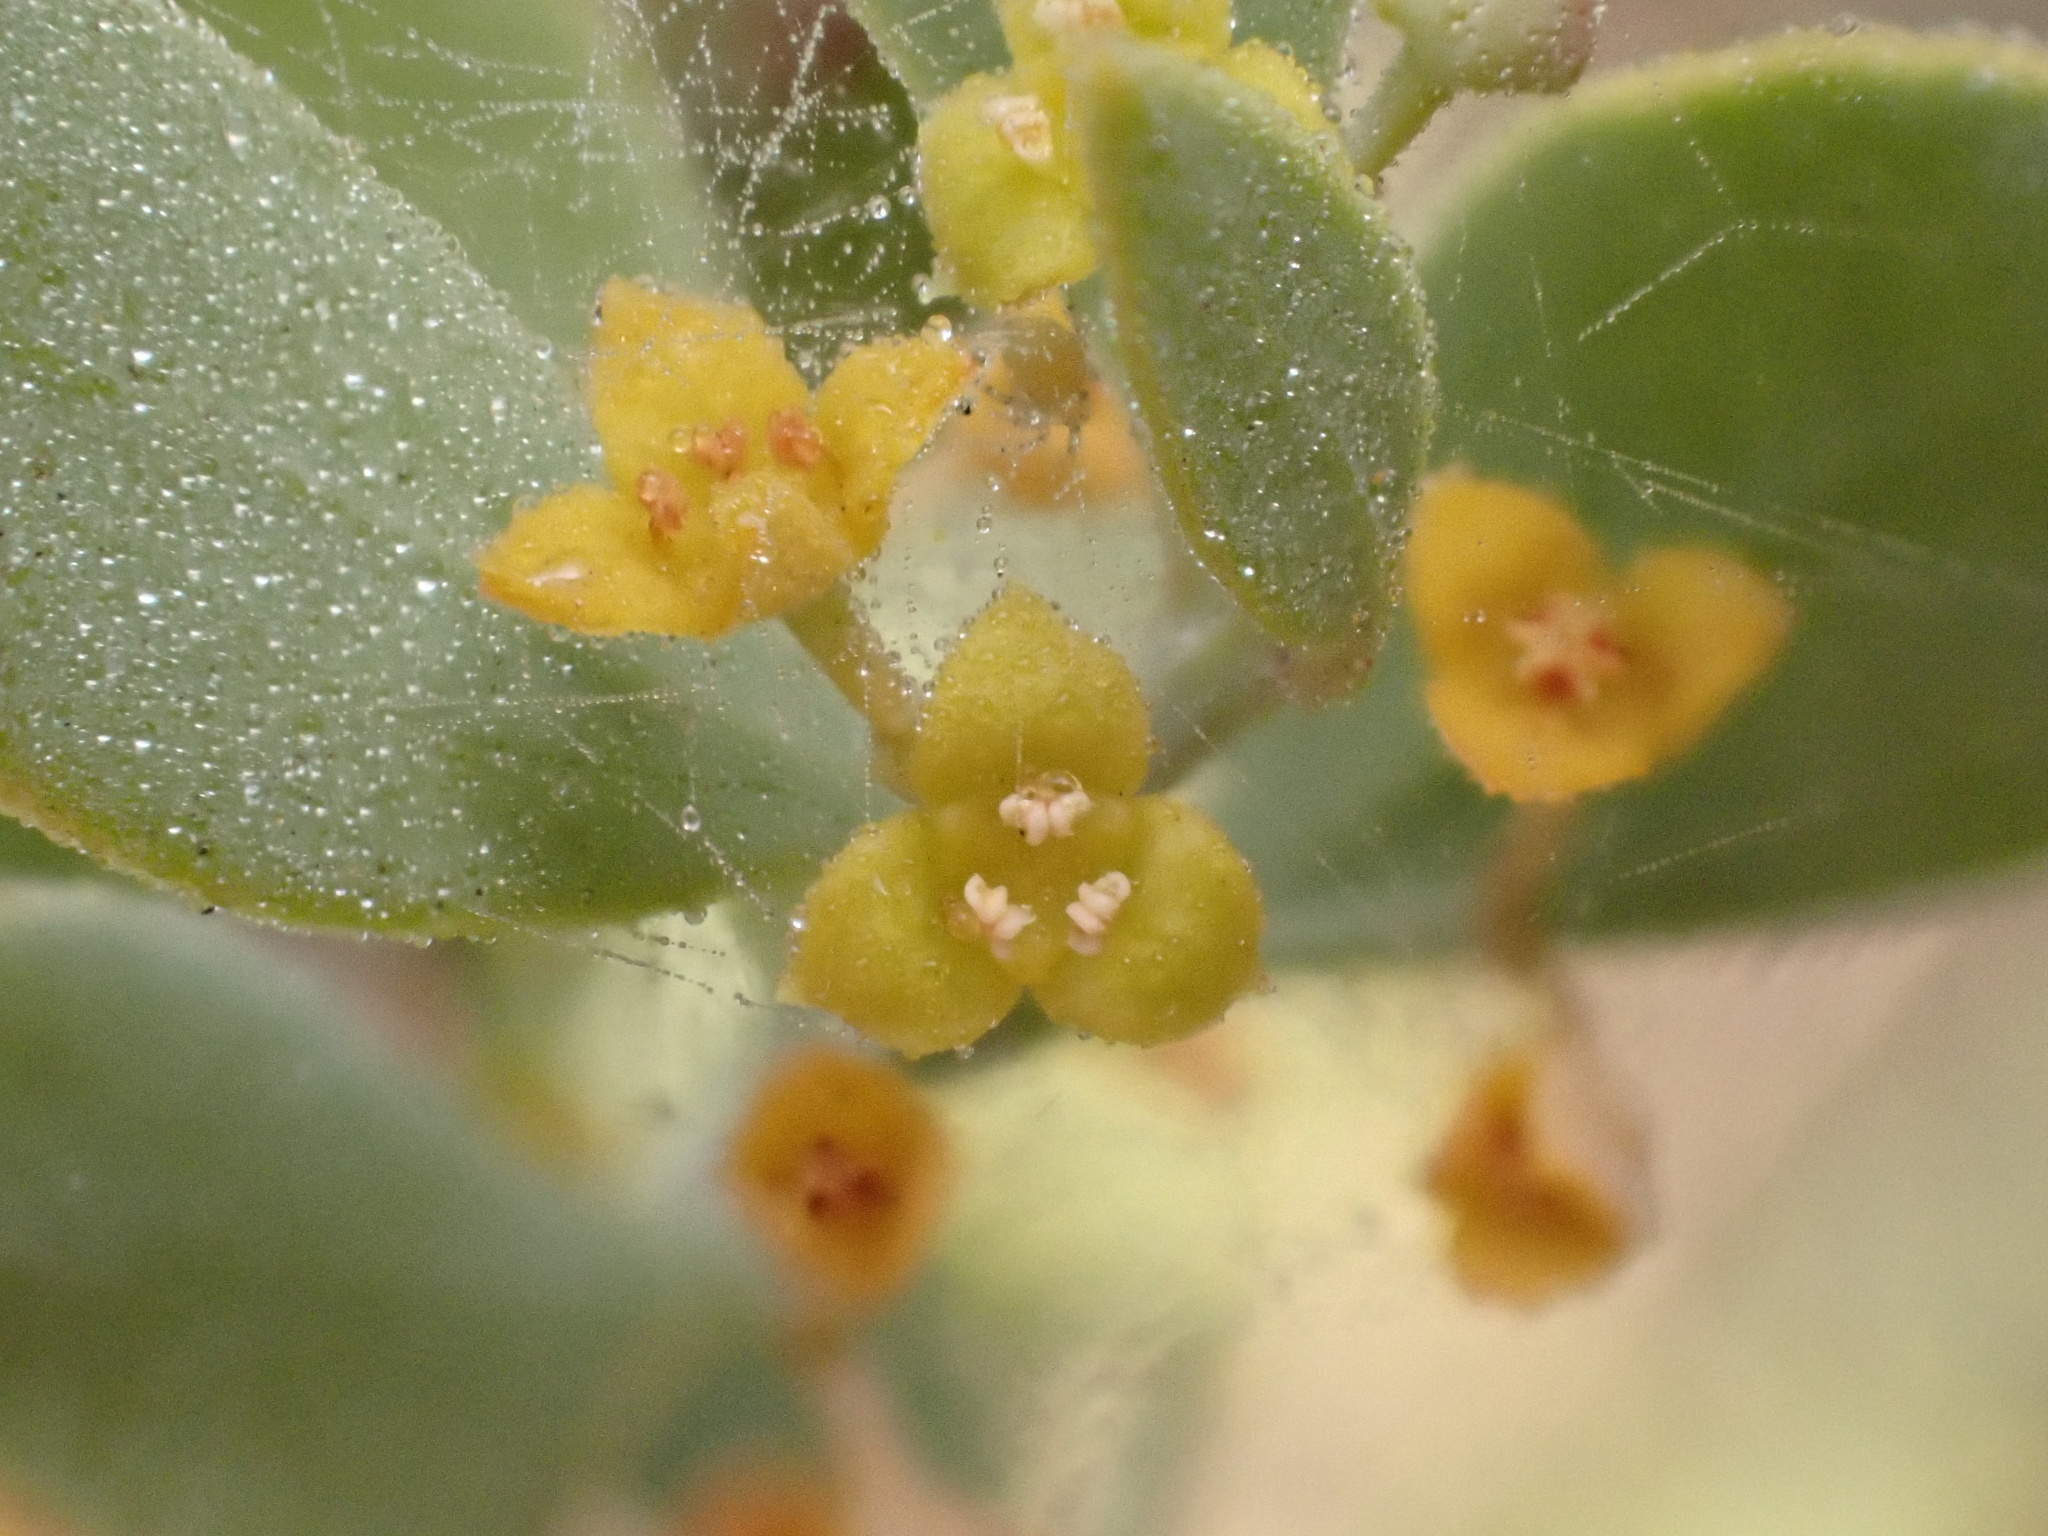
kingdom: Plantae
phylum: Tracheophyta
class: Magnoliopsida
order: Santalales
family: Santalaceae
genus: Osyris
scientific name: Osyris lanceolata
